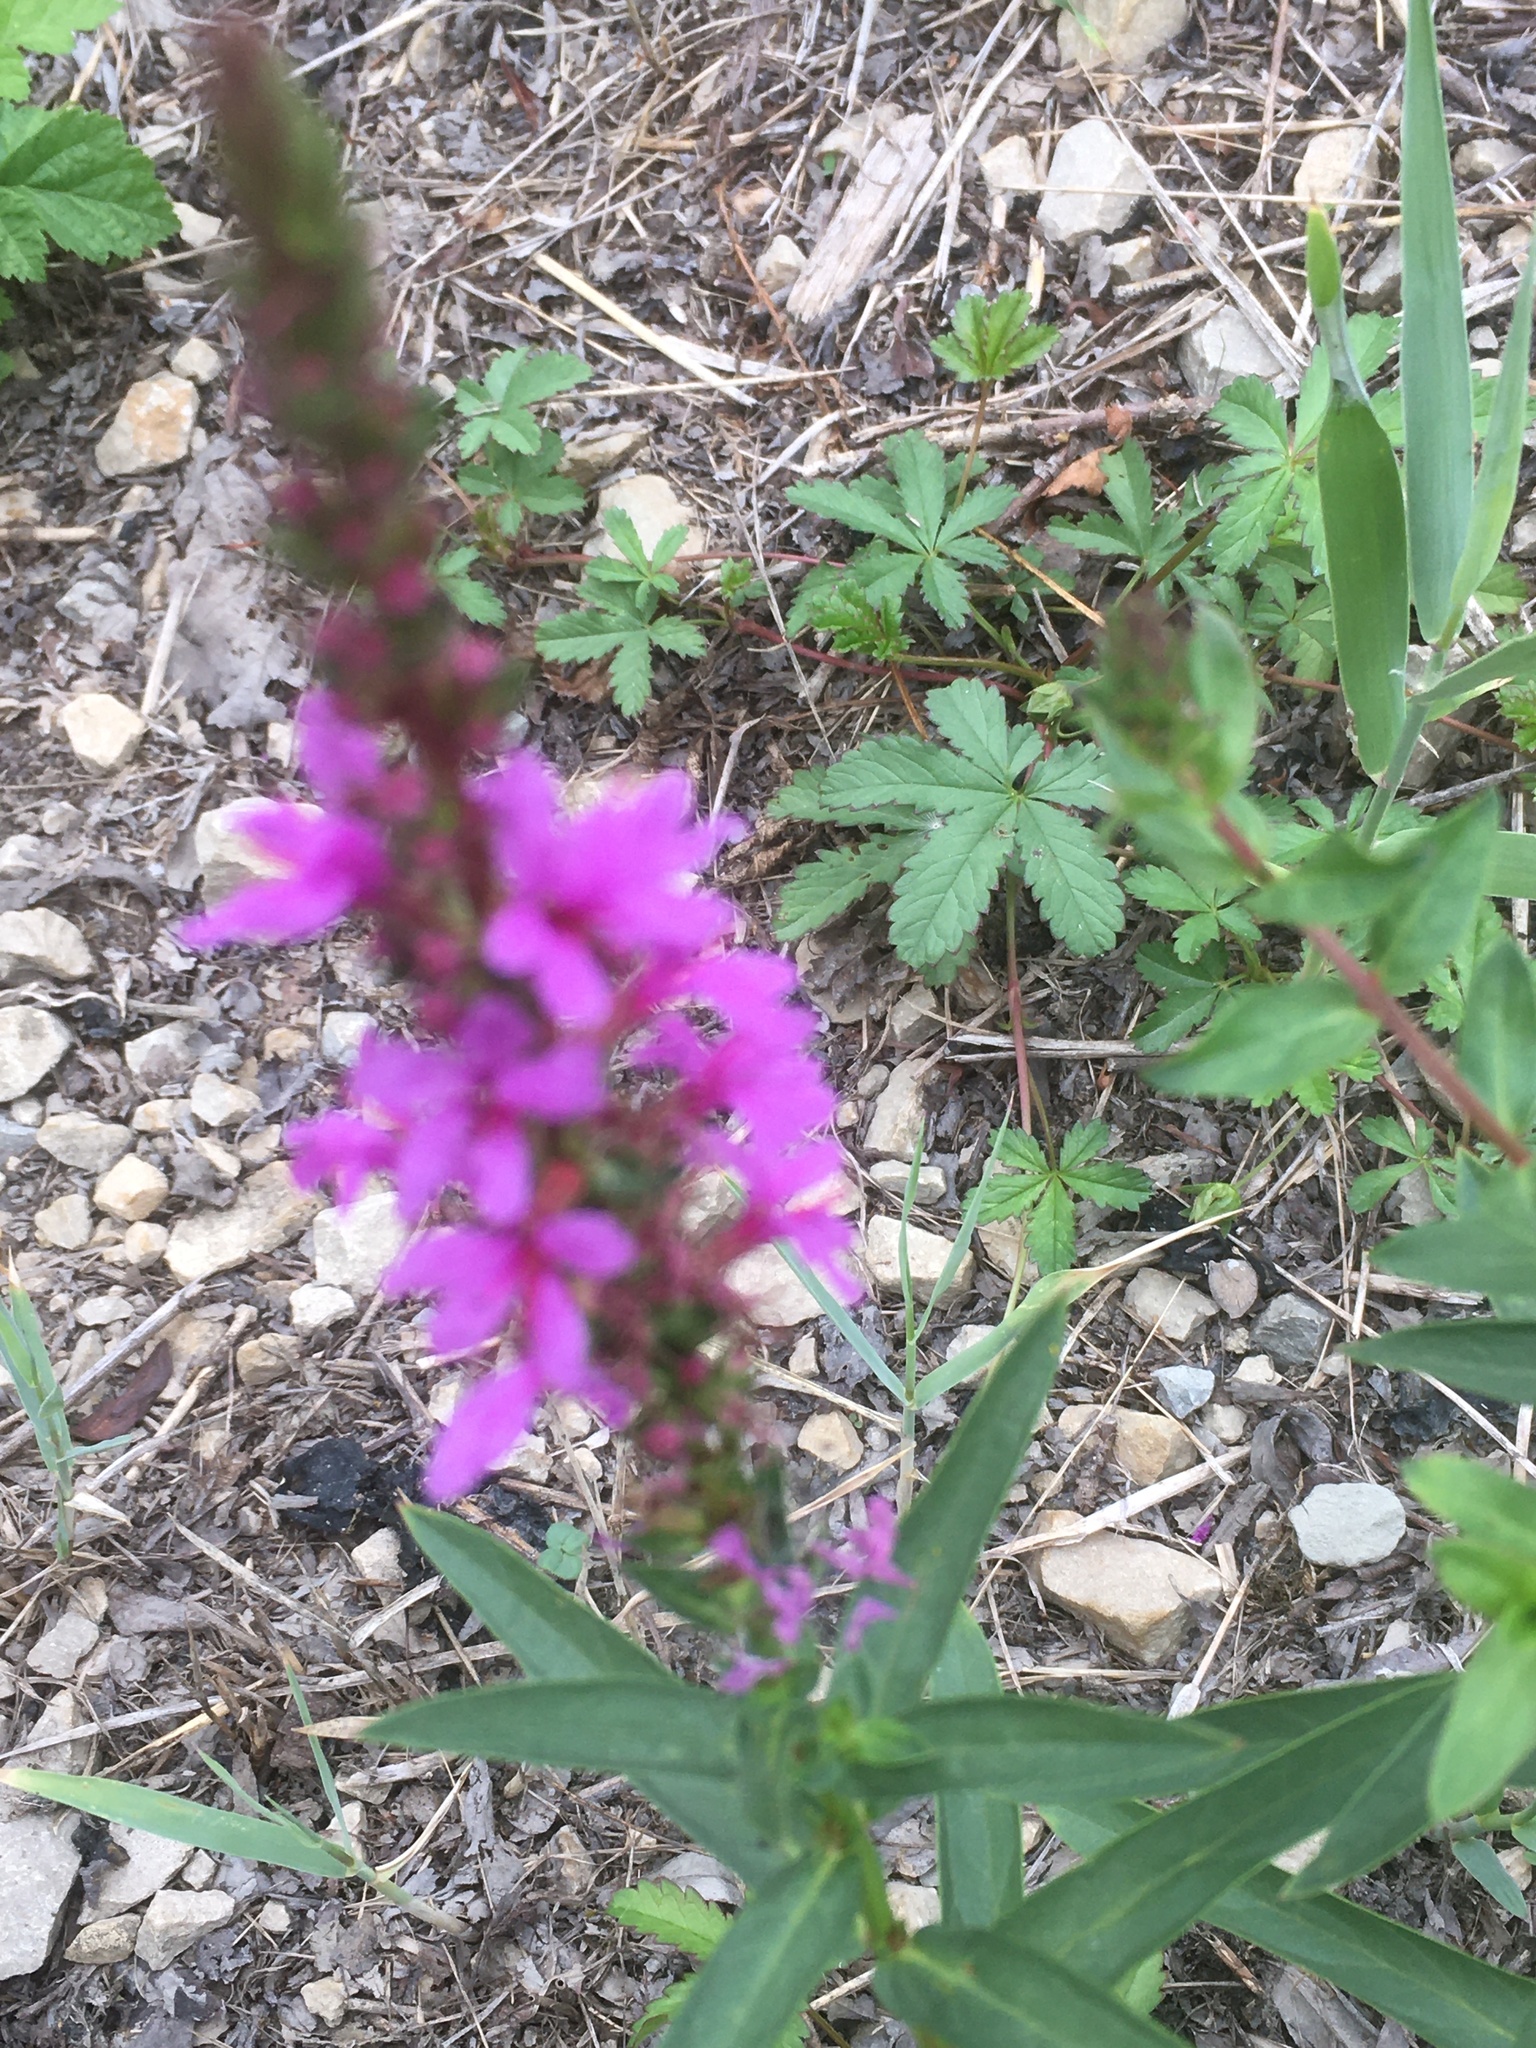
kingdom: Plantae
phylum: Tracheophyta
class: Magnoliopsida
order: Myrtales
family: Lythraceae
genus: Lythrum
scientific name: Lythrum salicaria
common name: Purple loosestrife
